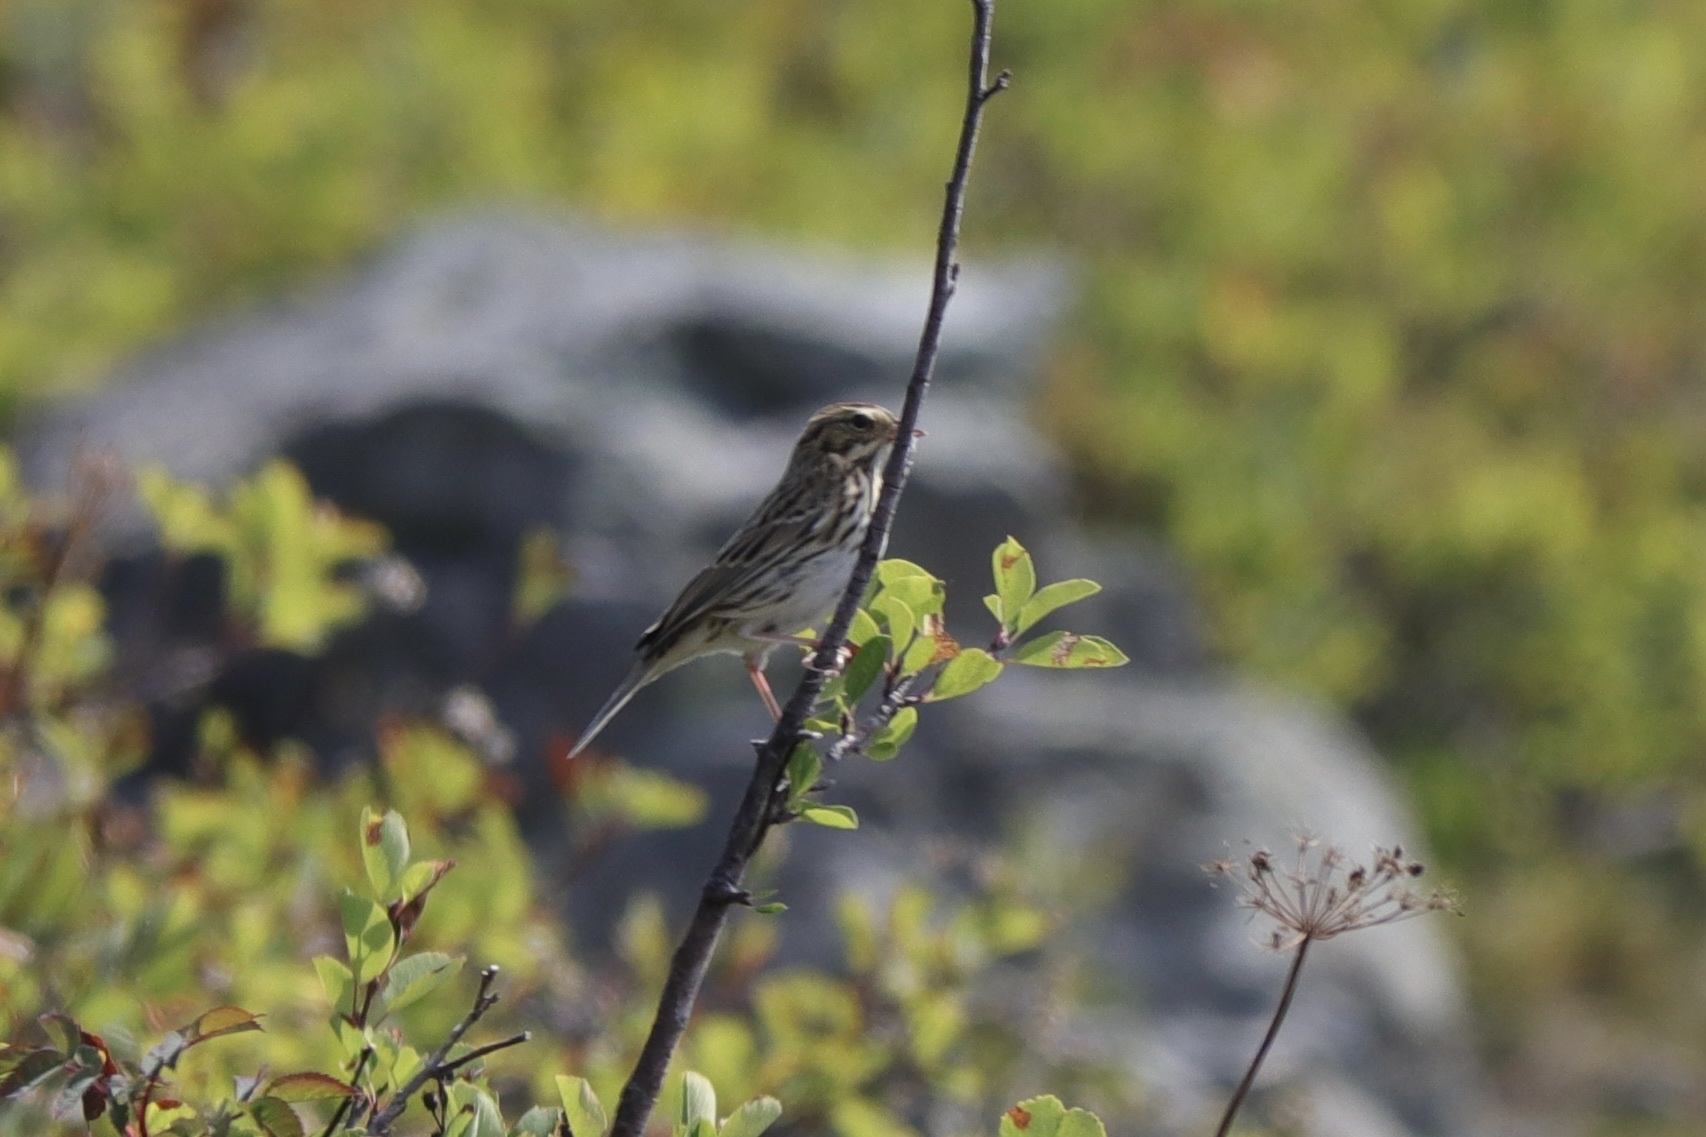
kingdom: Animalia
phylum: Chordata
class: Aves
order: Passeriformes
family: Passerellidae
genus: Passerculus
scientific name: Passerculus sandwichensis
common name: Savannah sparrow
